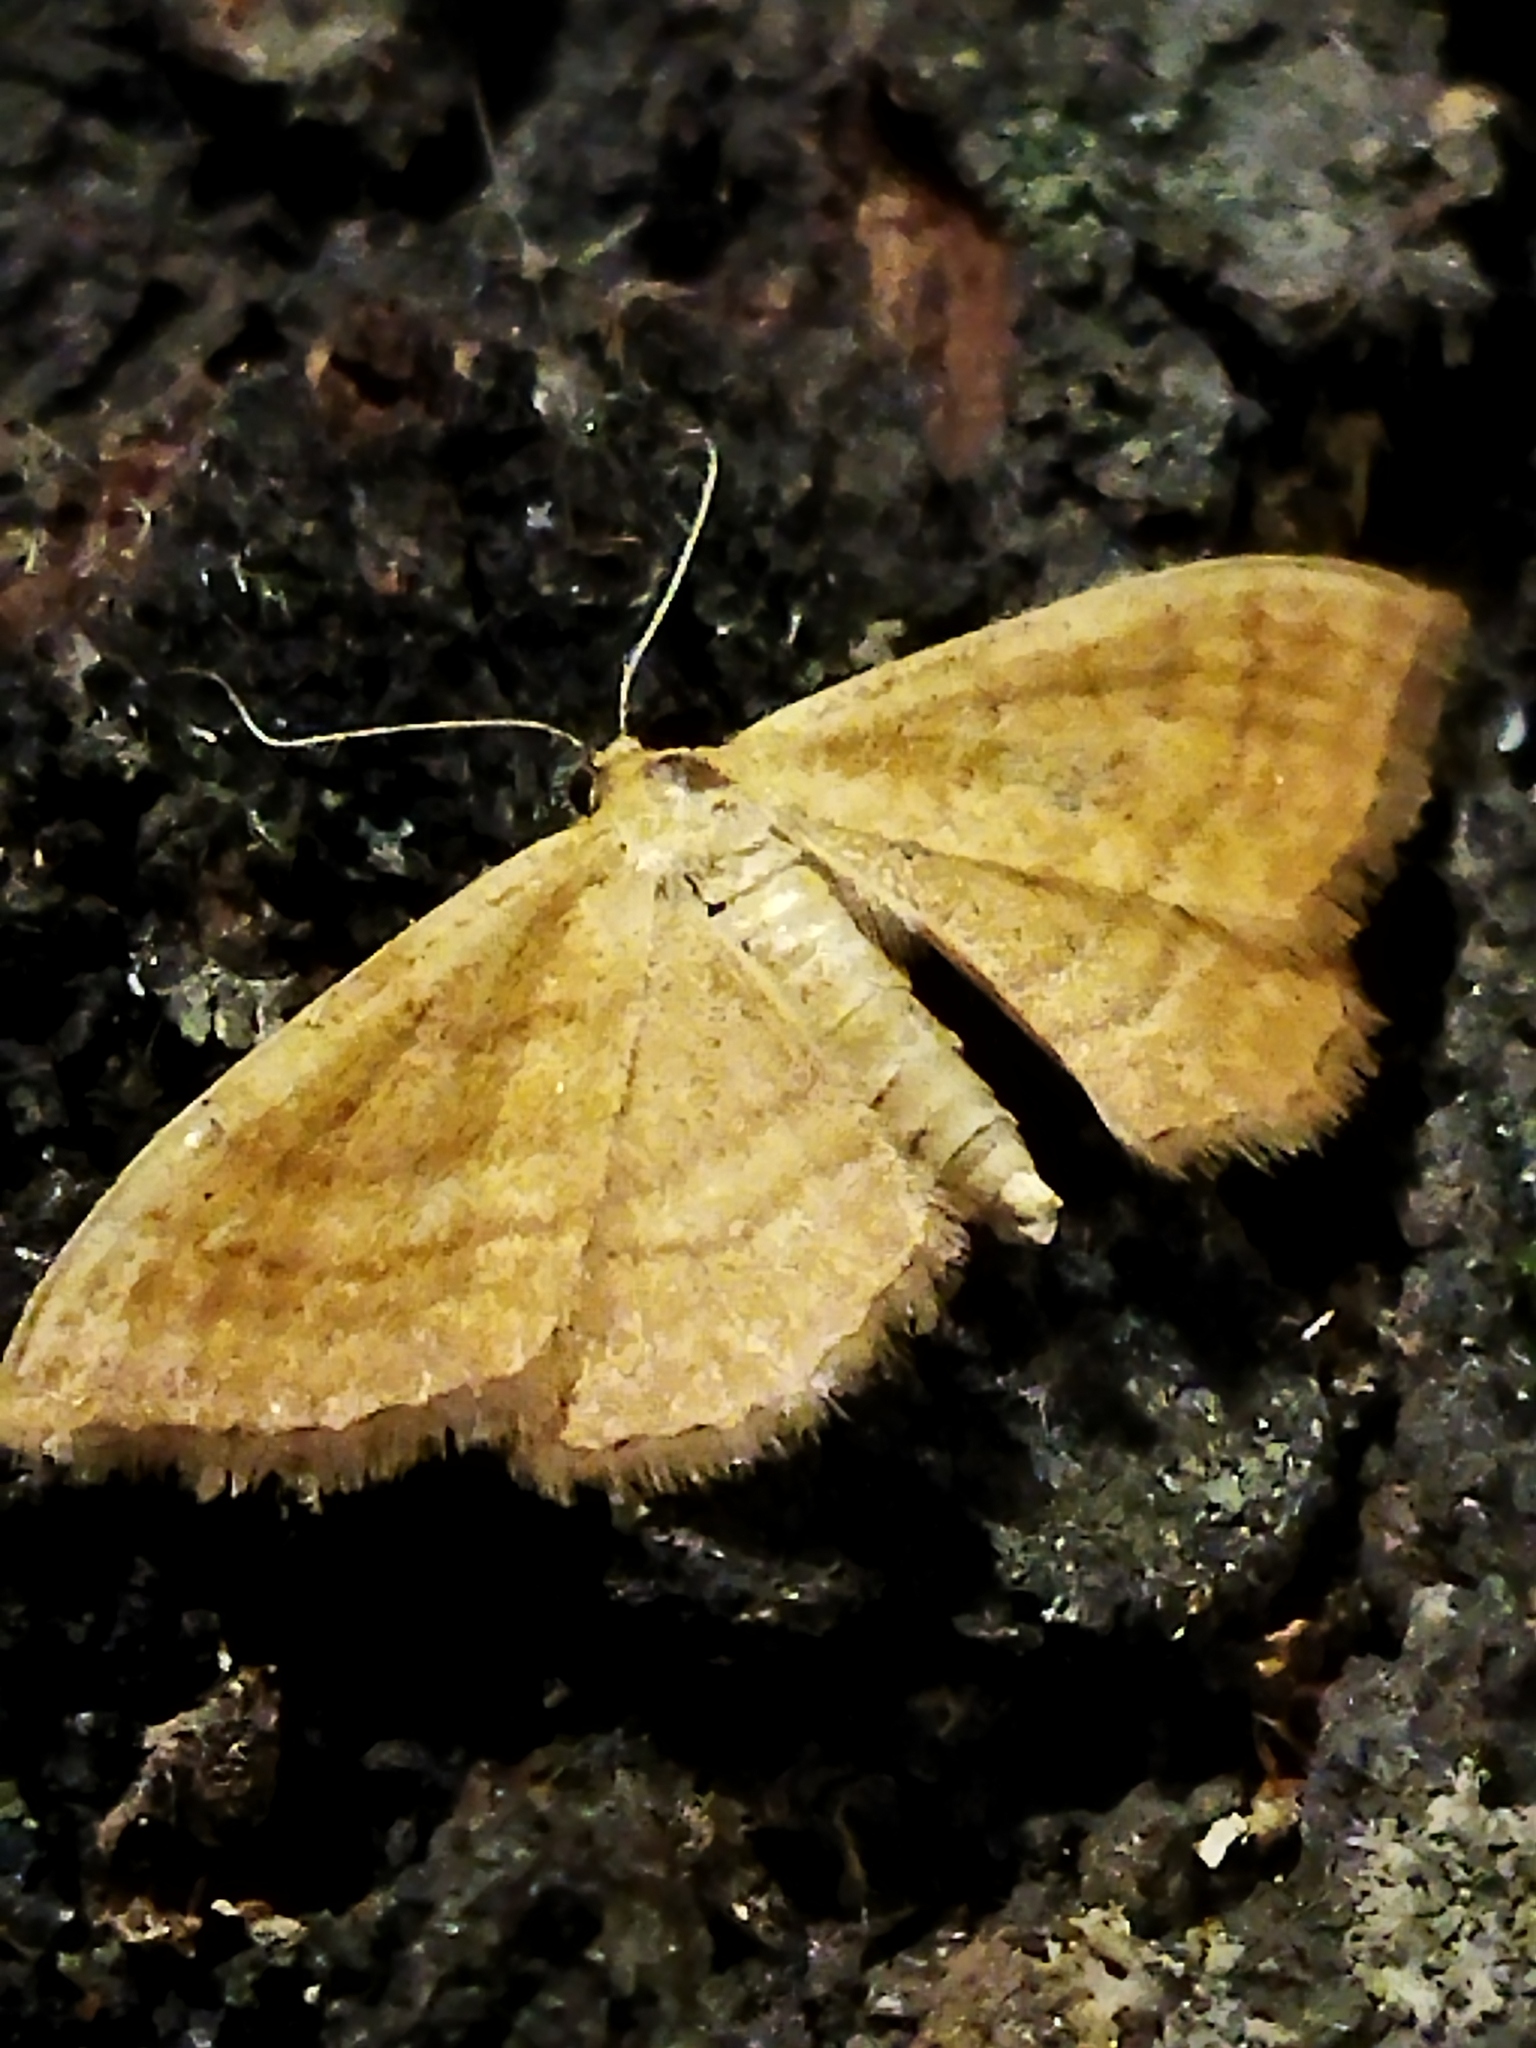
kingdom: Animalia
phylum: Arthropoda
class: Insecta
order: Lepidoptera
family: Geometridae
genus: Idaea
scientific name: Idaea ochrata
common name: Bright wave
